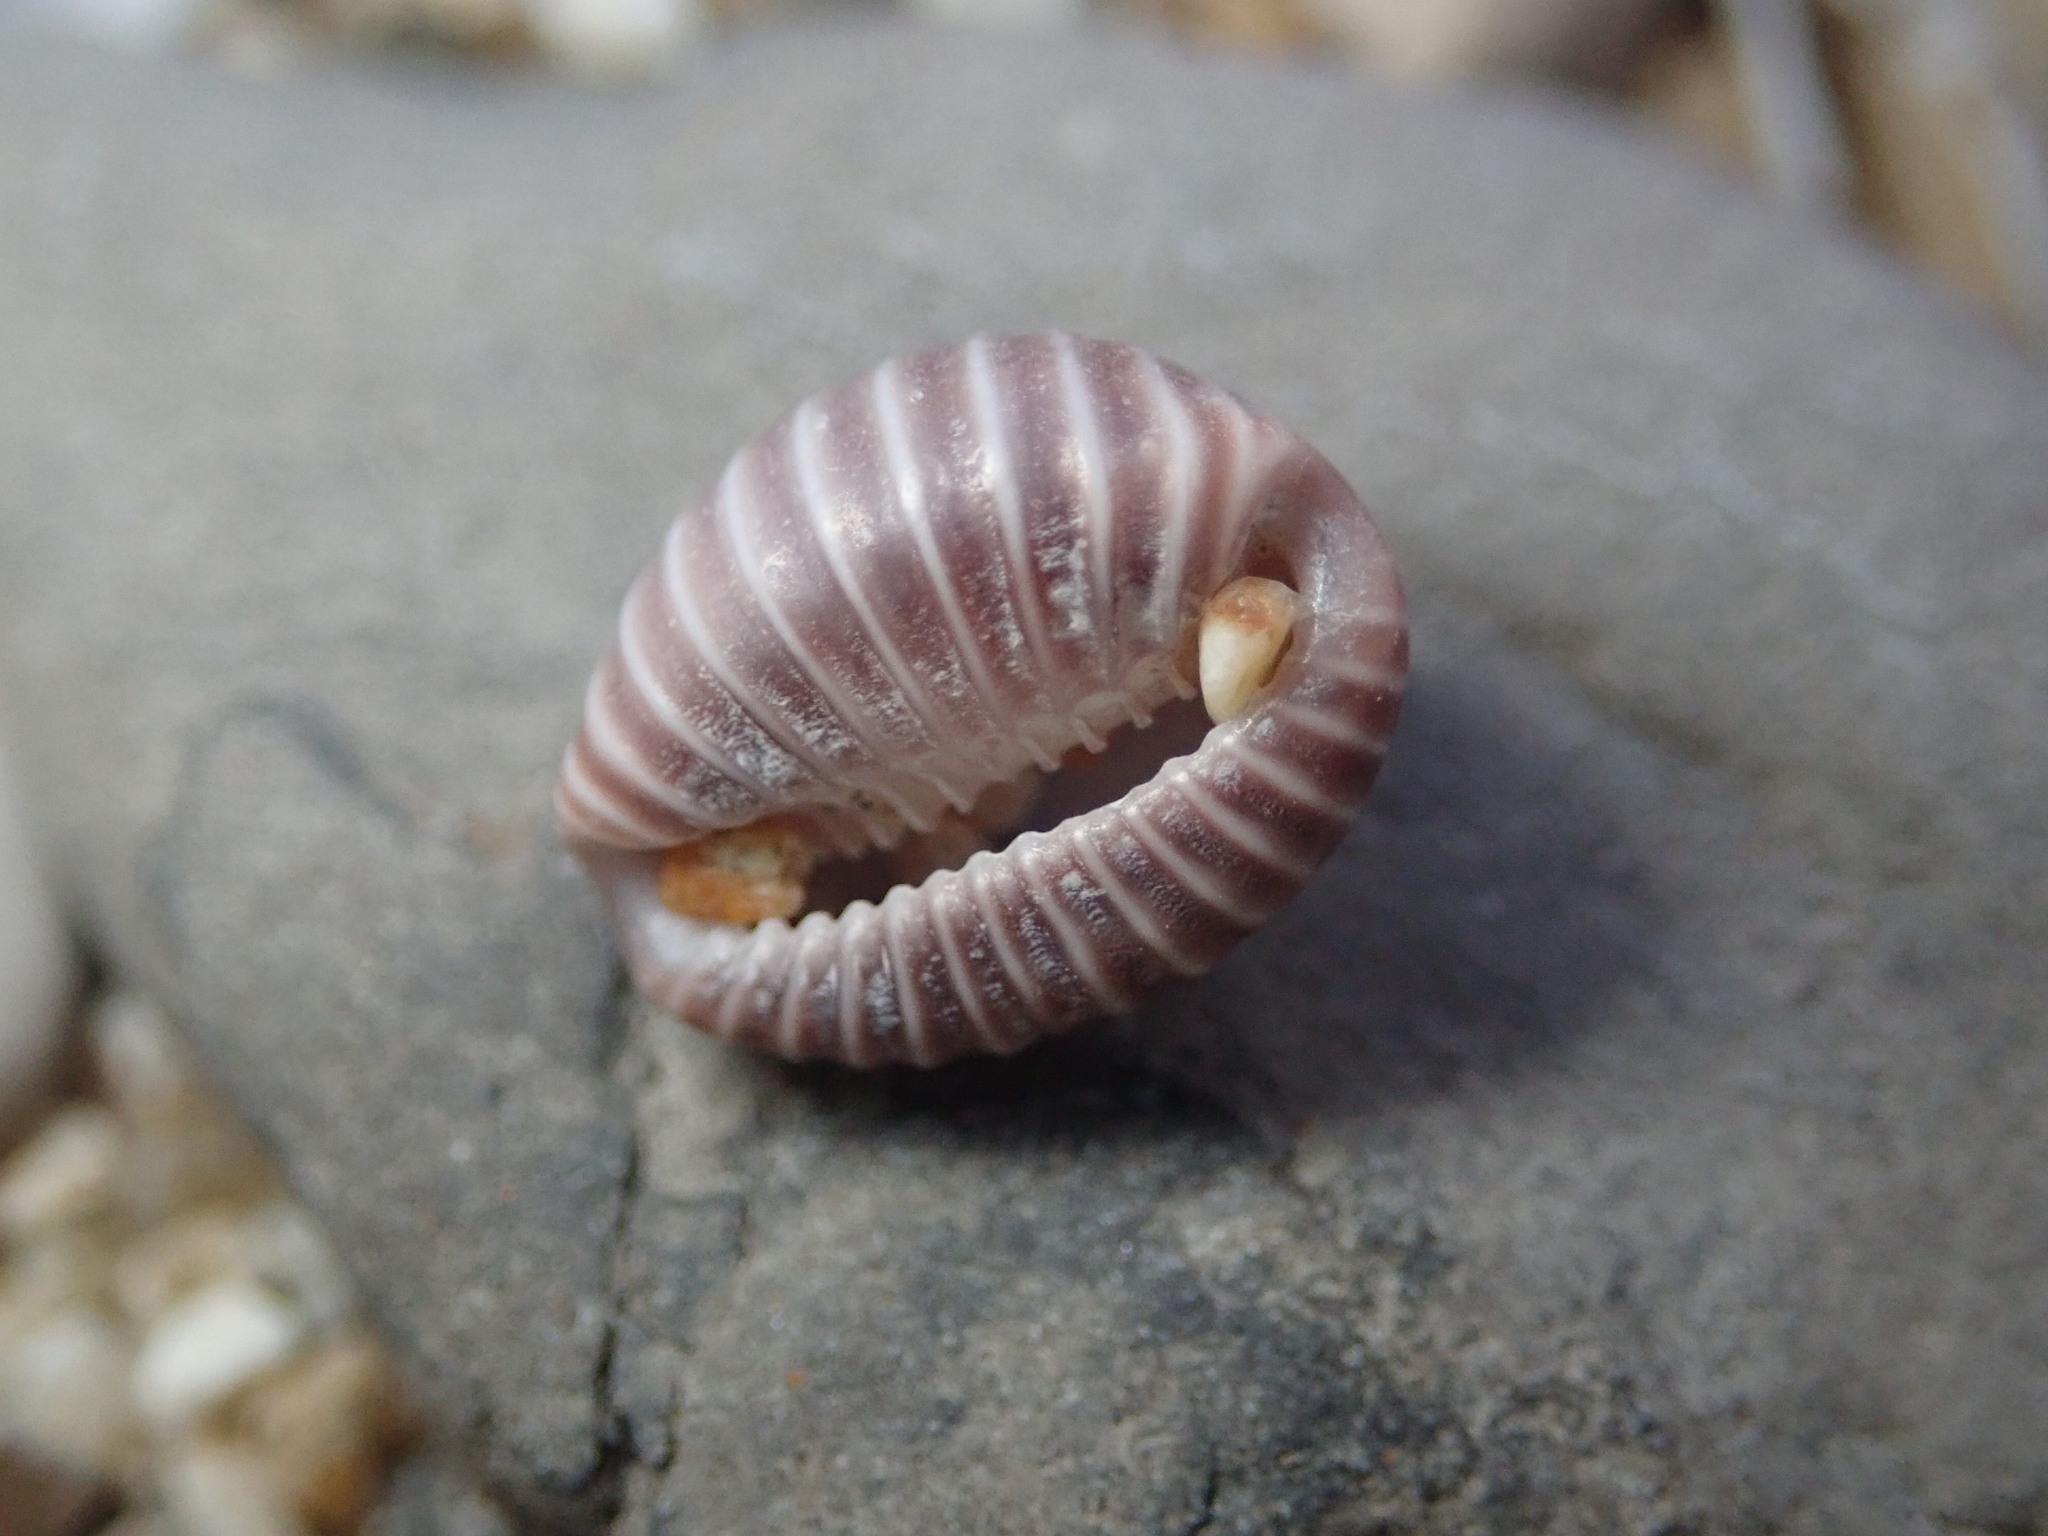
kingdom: Animalia
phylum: Mollusca
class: Gastropoda
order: Littorinimorpha
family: Triviidae
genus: Pseudopusula
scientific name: Pseudopusula californiana
